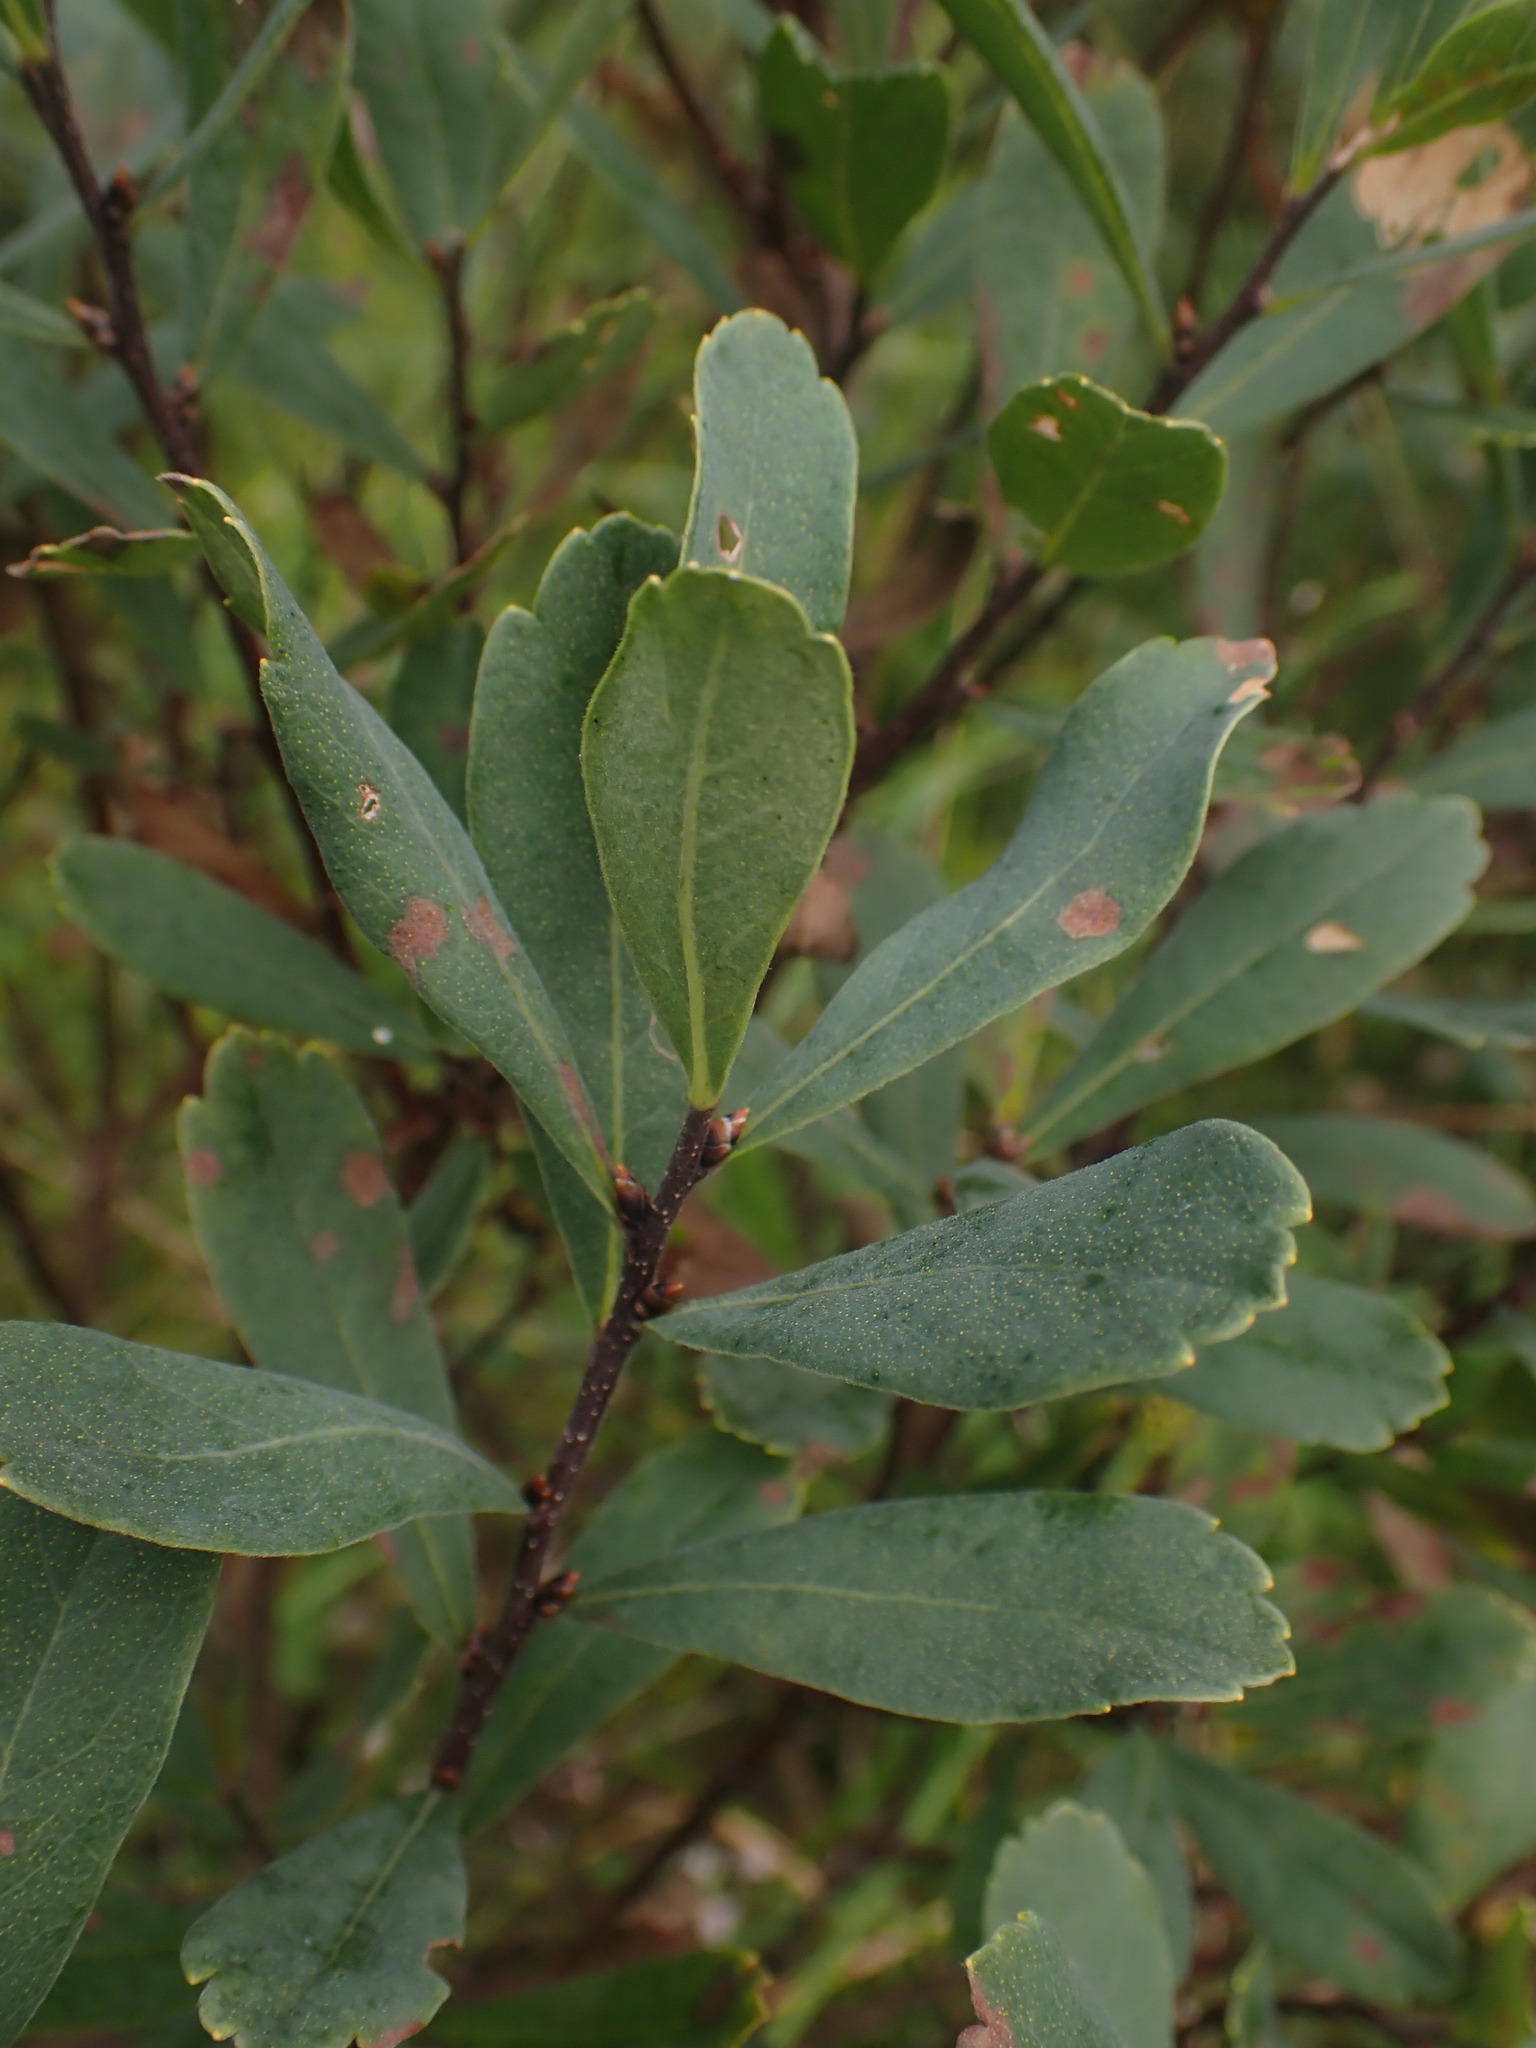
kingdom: Plantae
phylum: Tracheophyta
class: Magnoliopsida
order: Fagales
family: Myricaceae
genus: Myrica
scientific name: Myrica gale
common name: Sweet gale
